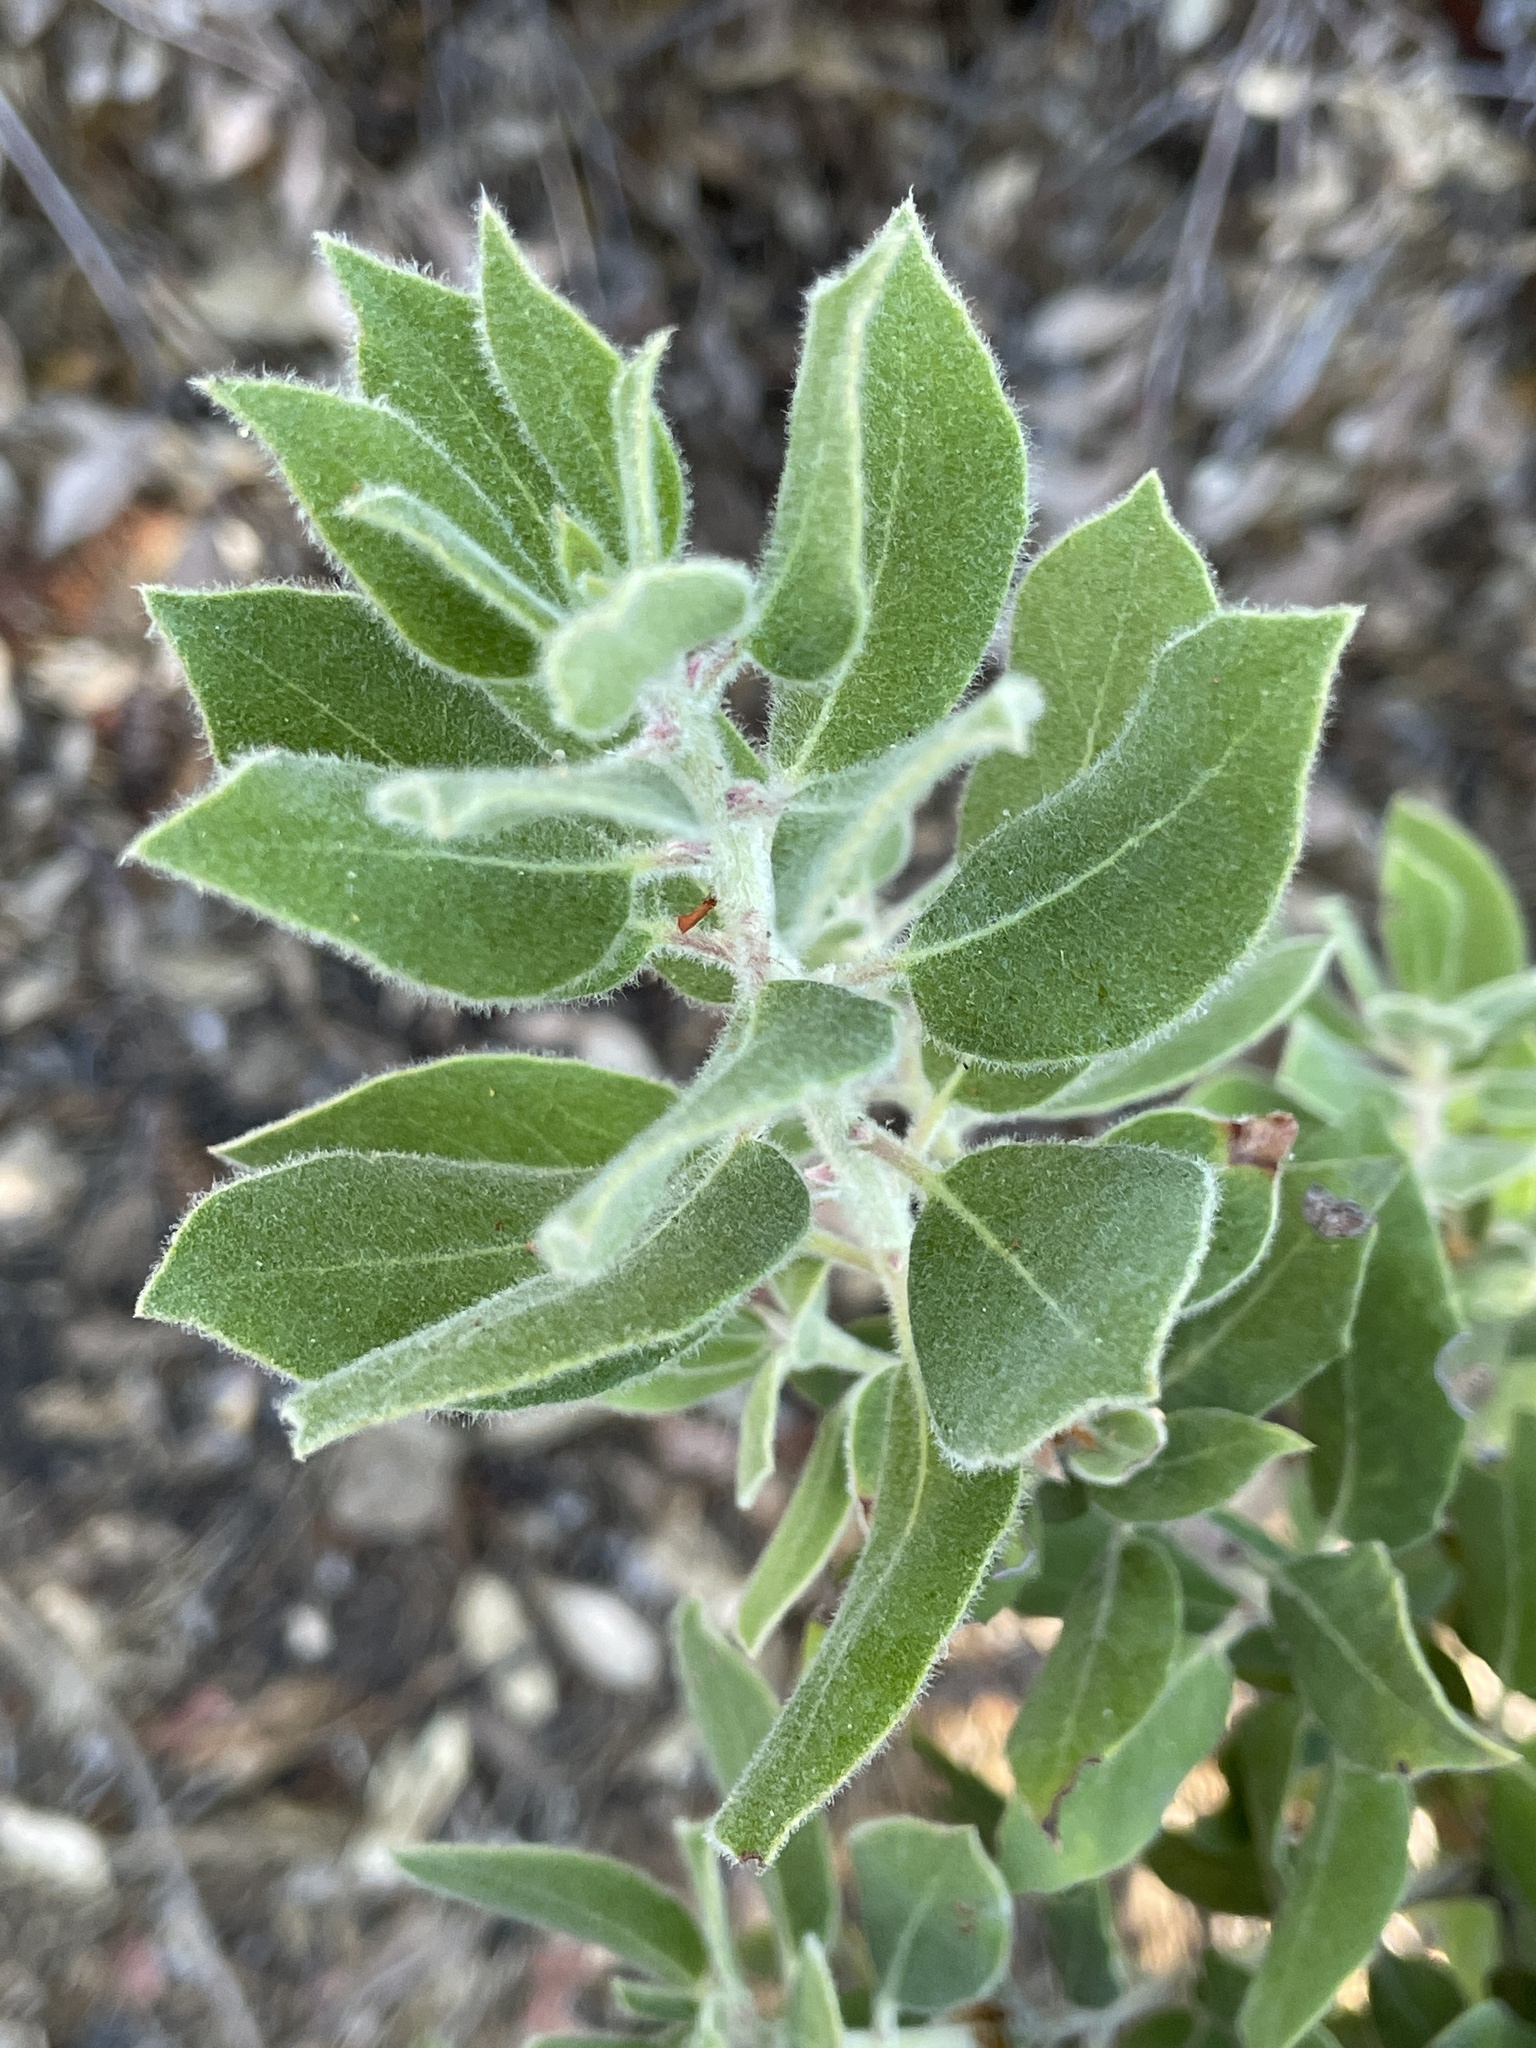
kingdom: Plantae
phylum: Tracheophyta
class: Magnoliopsida
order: Ericales
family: Ericaceae
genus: Arctostaphylos
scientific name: Arctostaphylos crustacea
